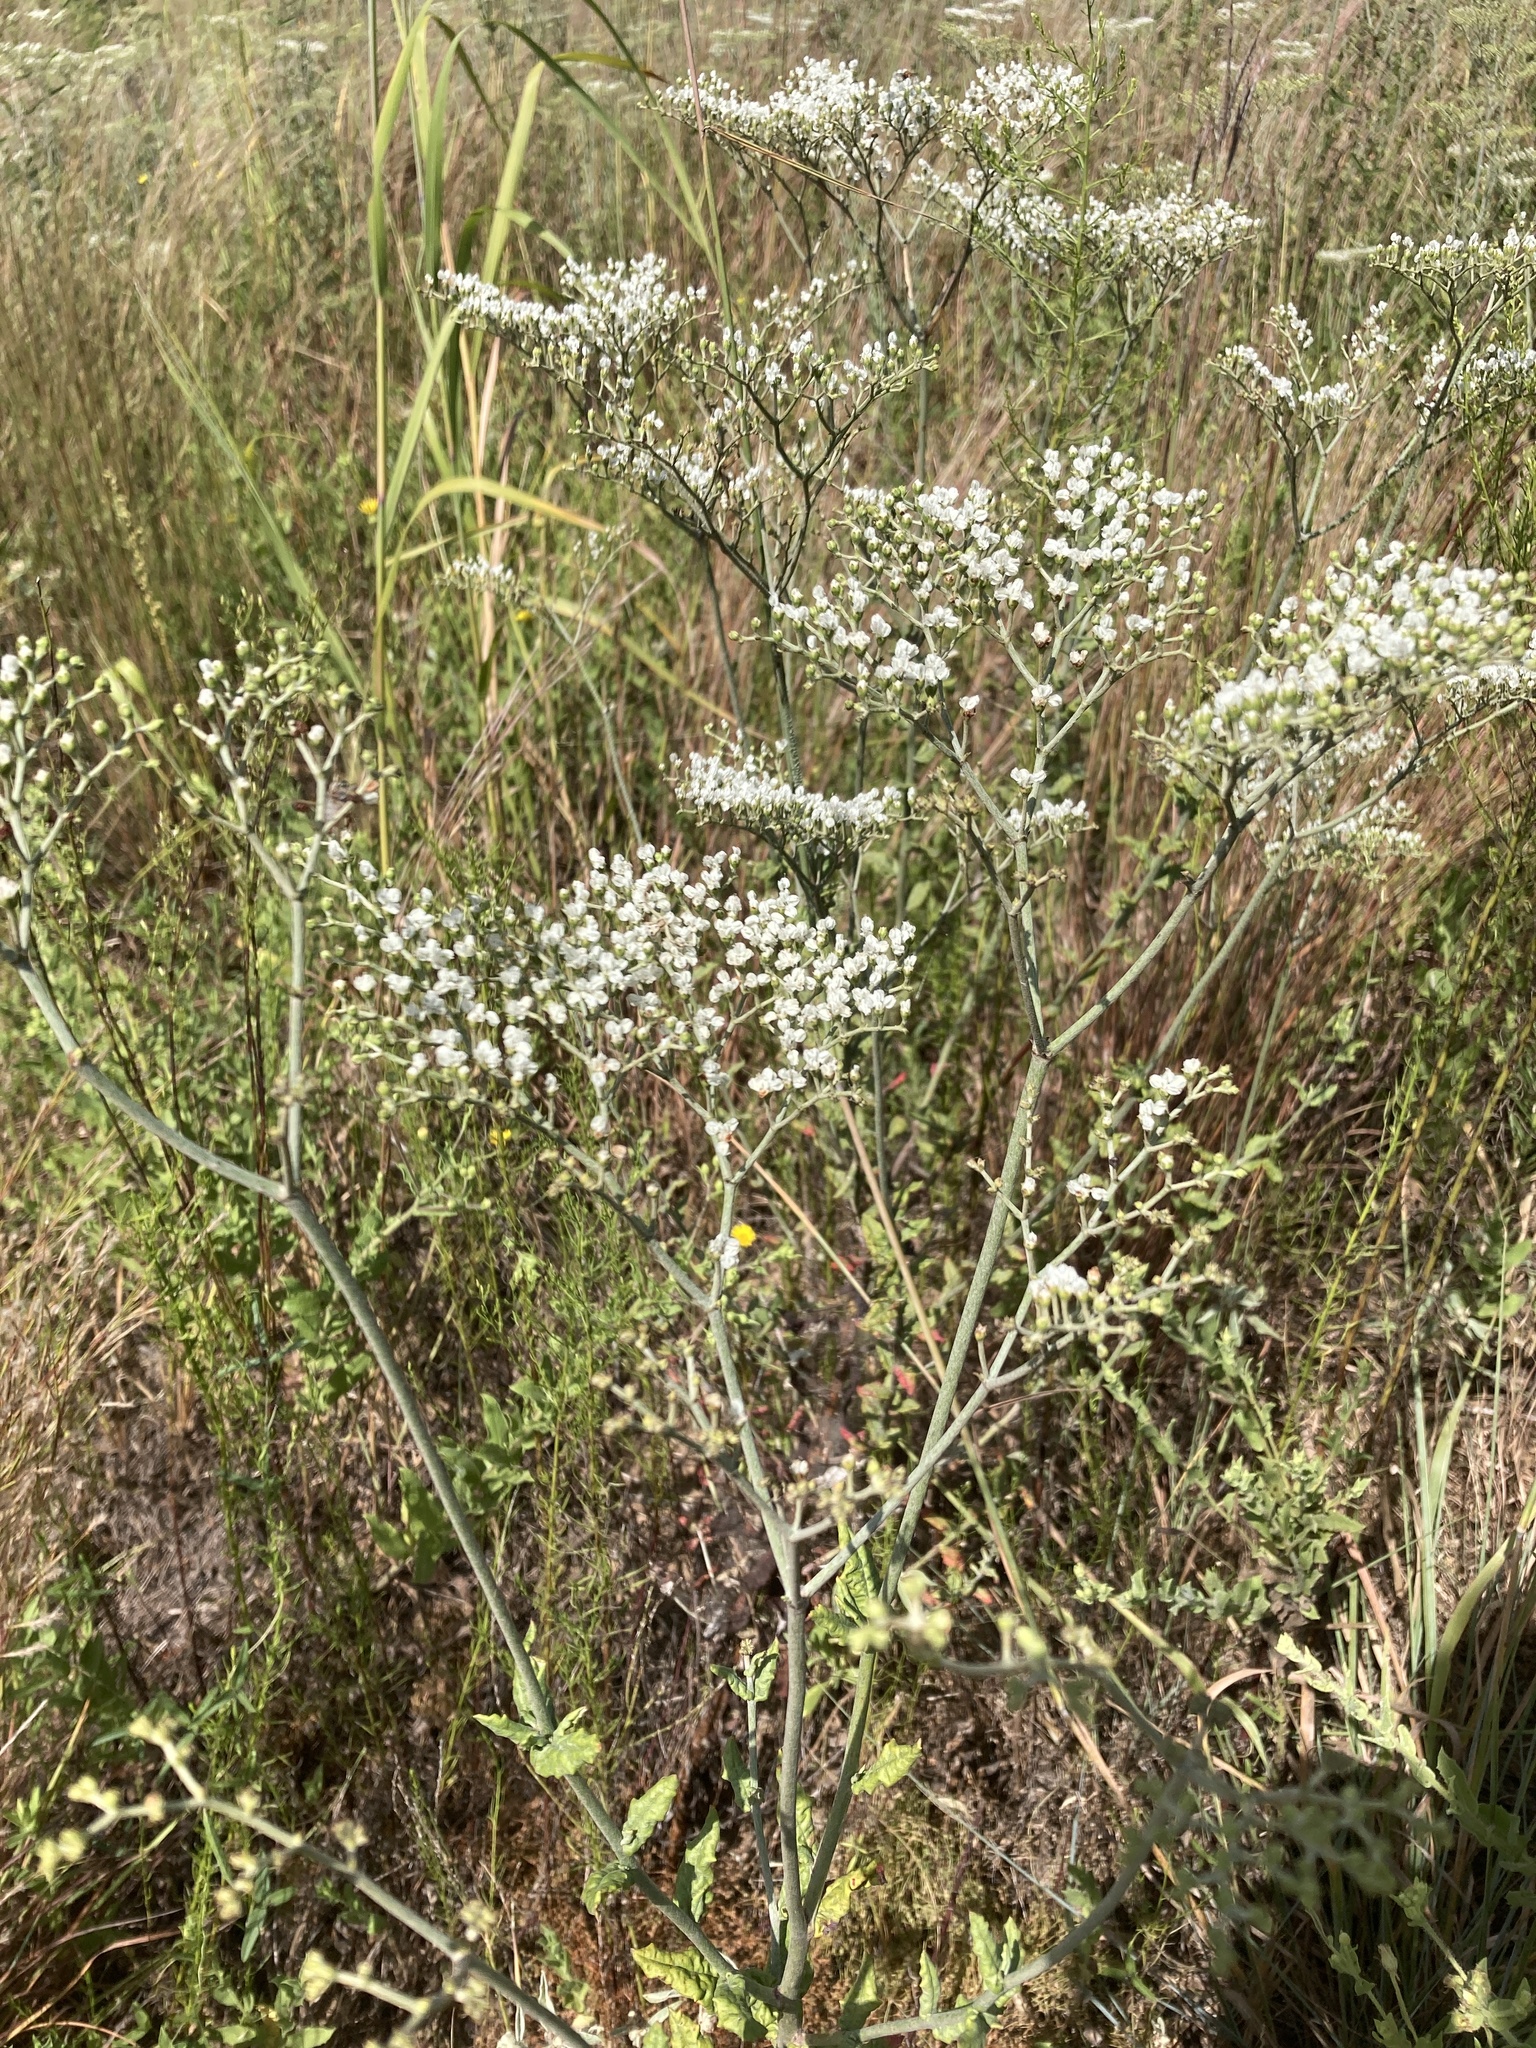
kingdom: Plantae
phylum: Tracheophyta
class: Magnoliopsida
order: Caryophyllales
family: Polygonaceae
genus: Eriogonum
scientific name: Eriogonum multiflorum
